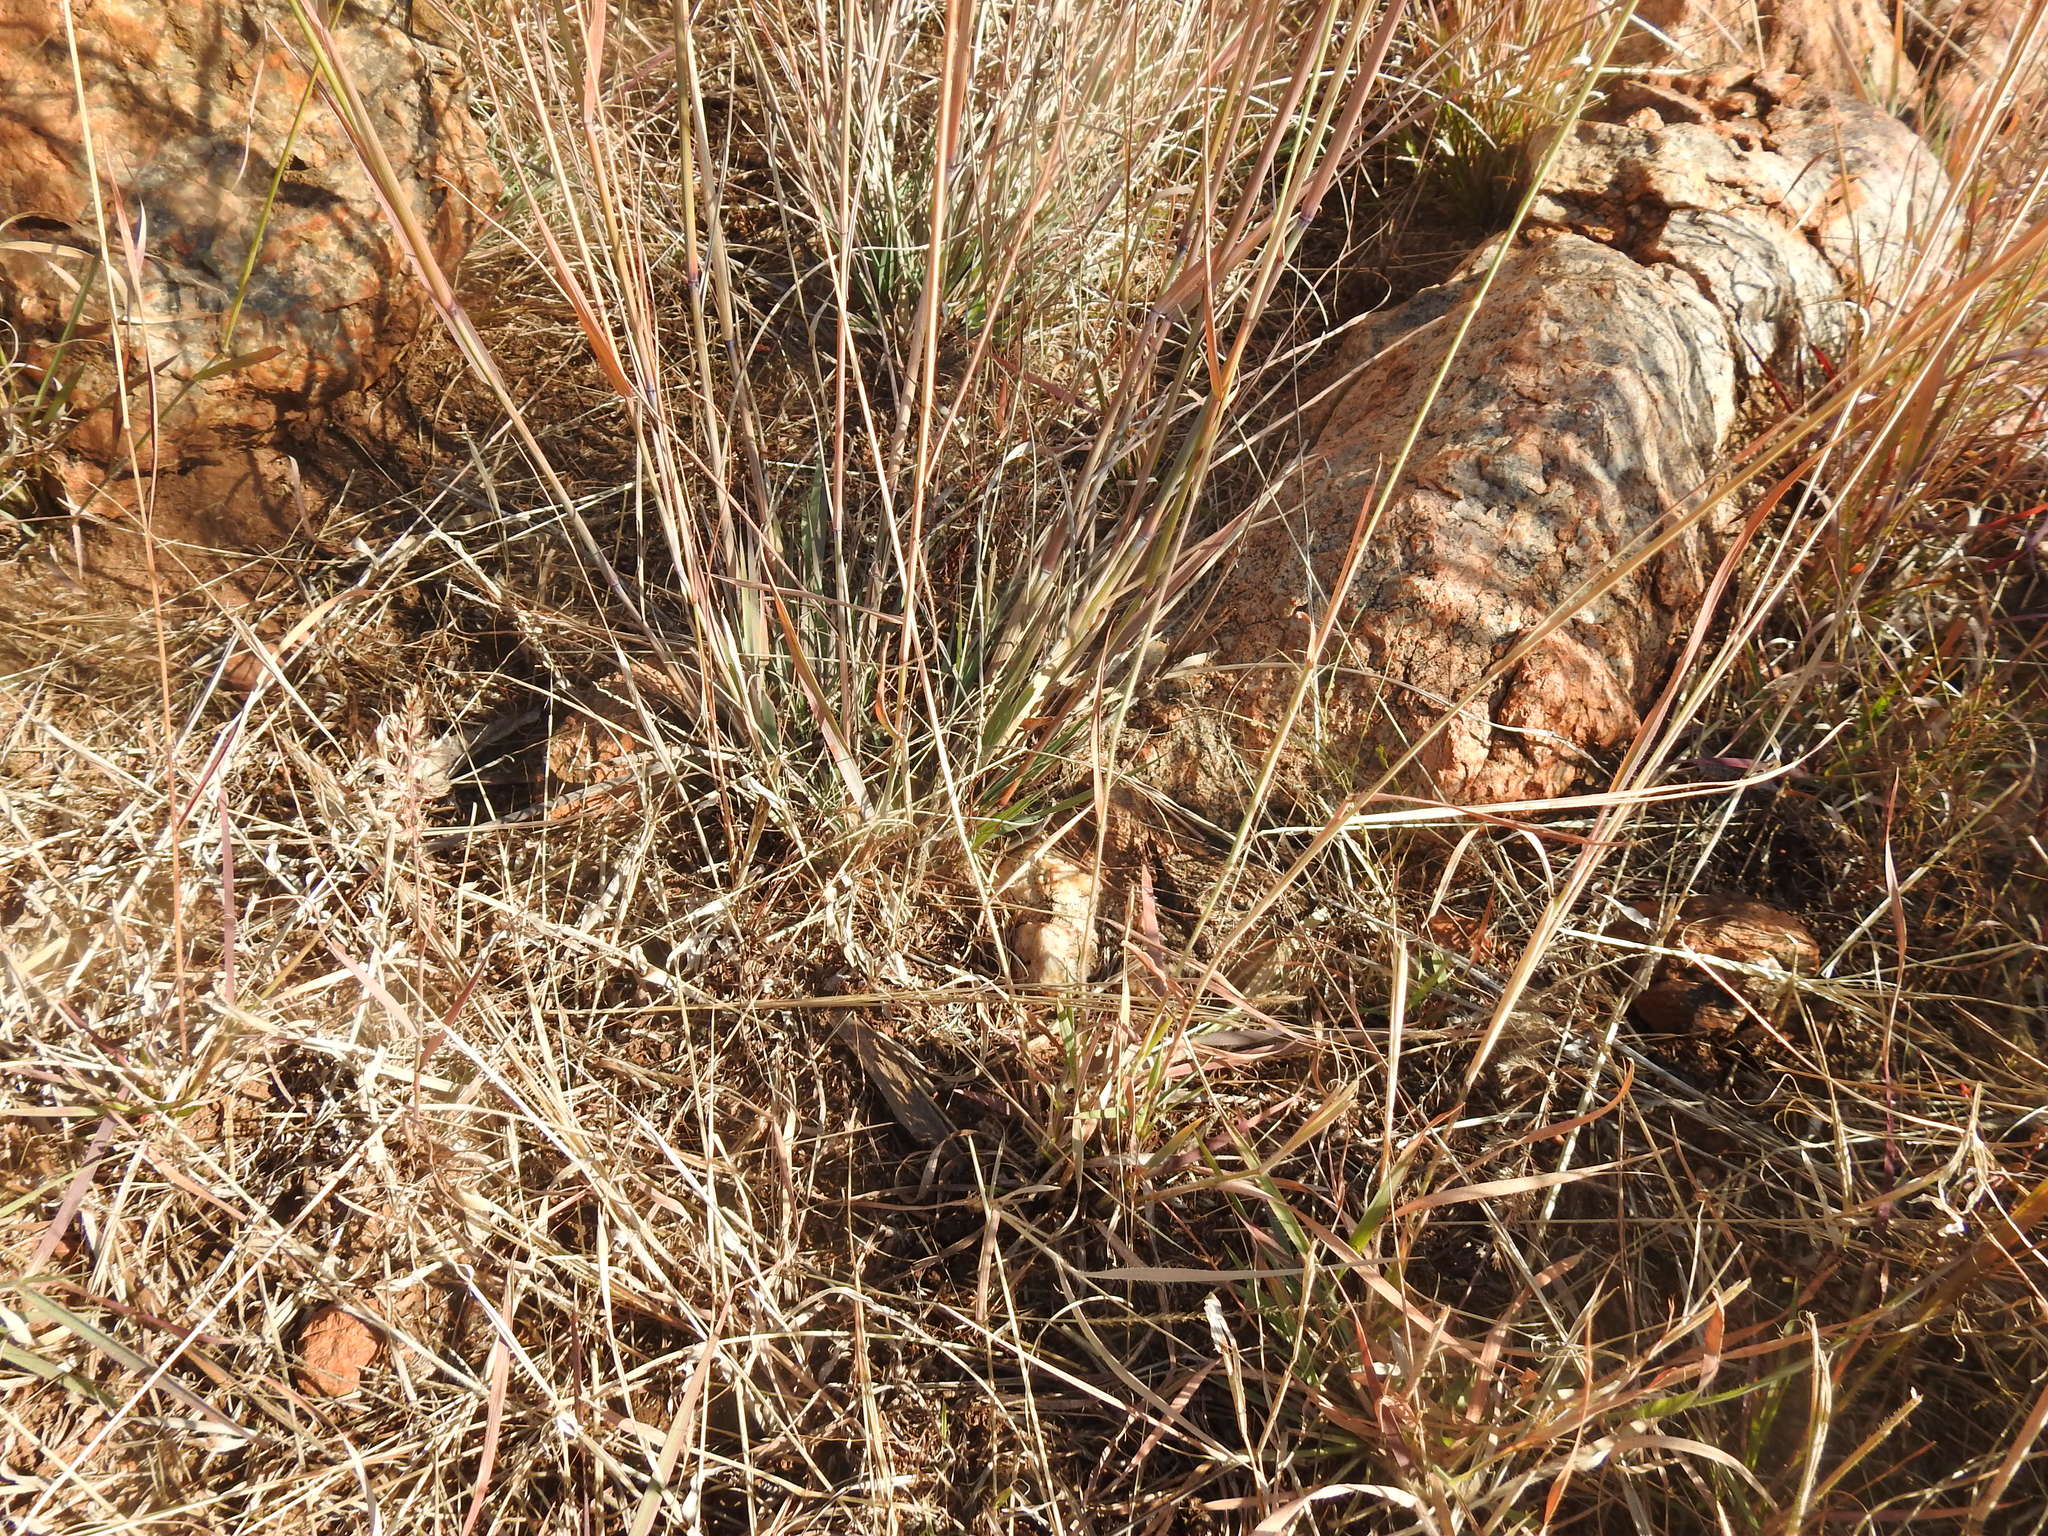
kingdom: Plantae
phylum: Tracheophyta
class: Liliopsida
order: Poales
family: Poaceae
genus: Pogonarthria
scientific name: Pogonarthria squarrosa
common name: Grass
